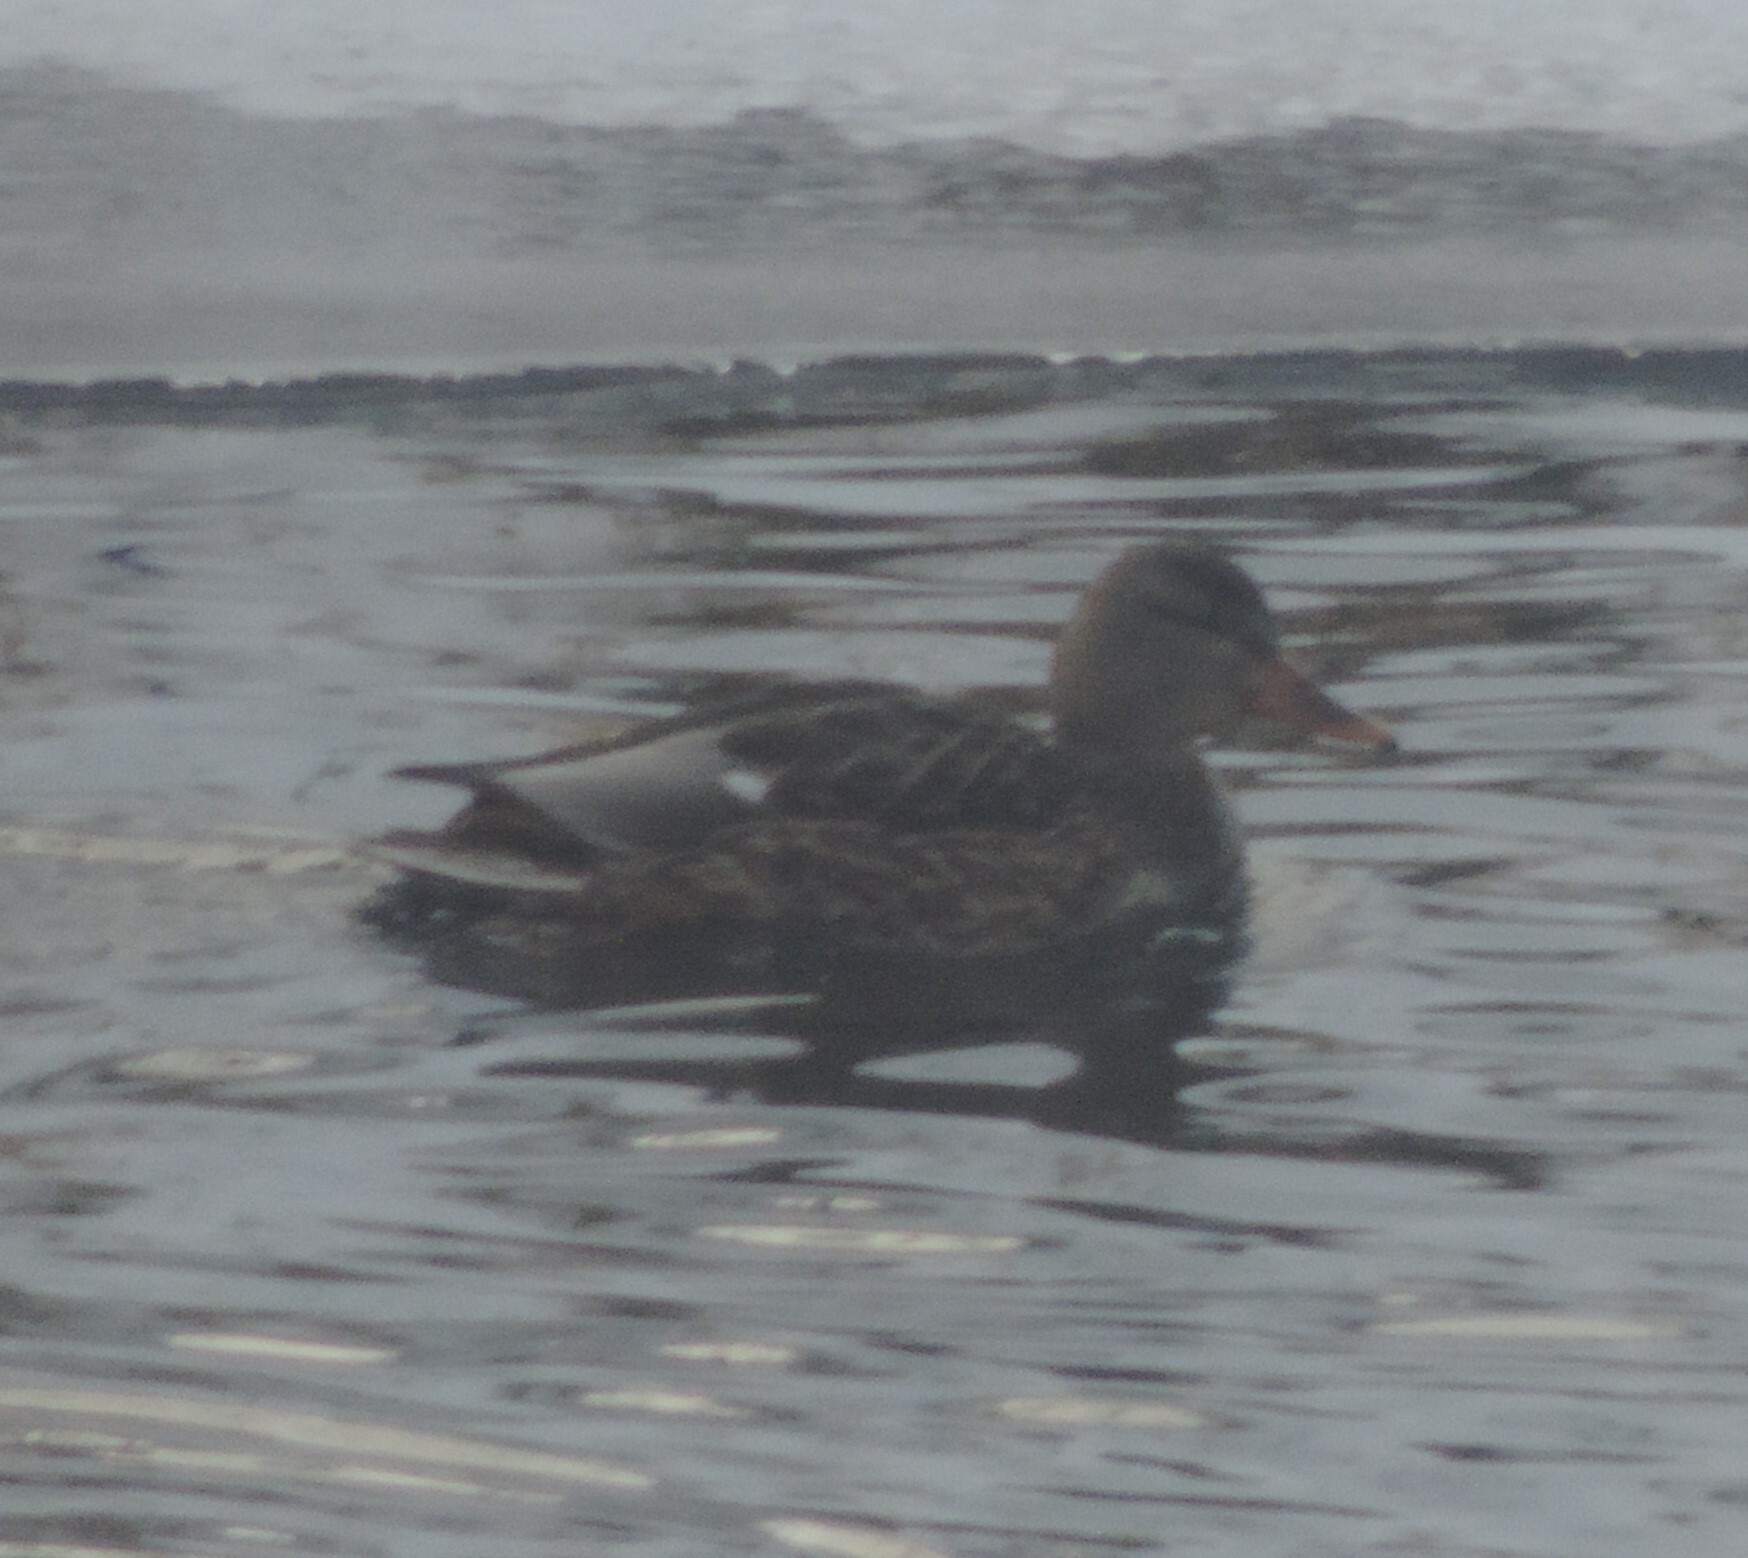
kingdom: Animalia
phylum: Chordata
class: Aves
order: Anseriformes
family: Anatidae
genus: Anas
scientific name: Anas platyrhynchos
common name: Mallard
